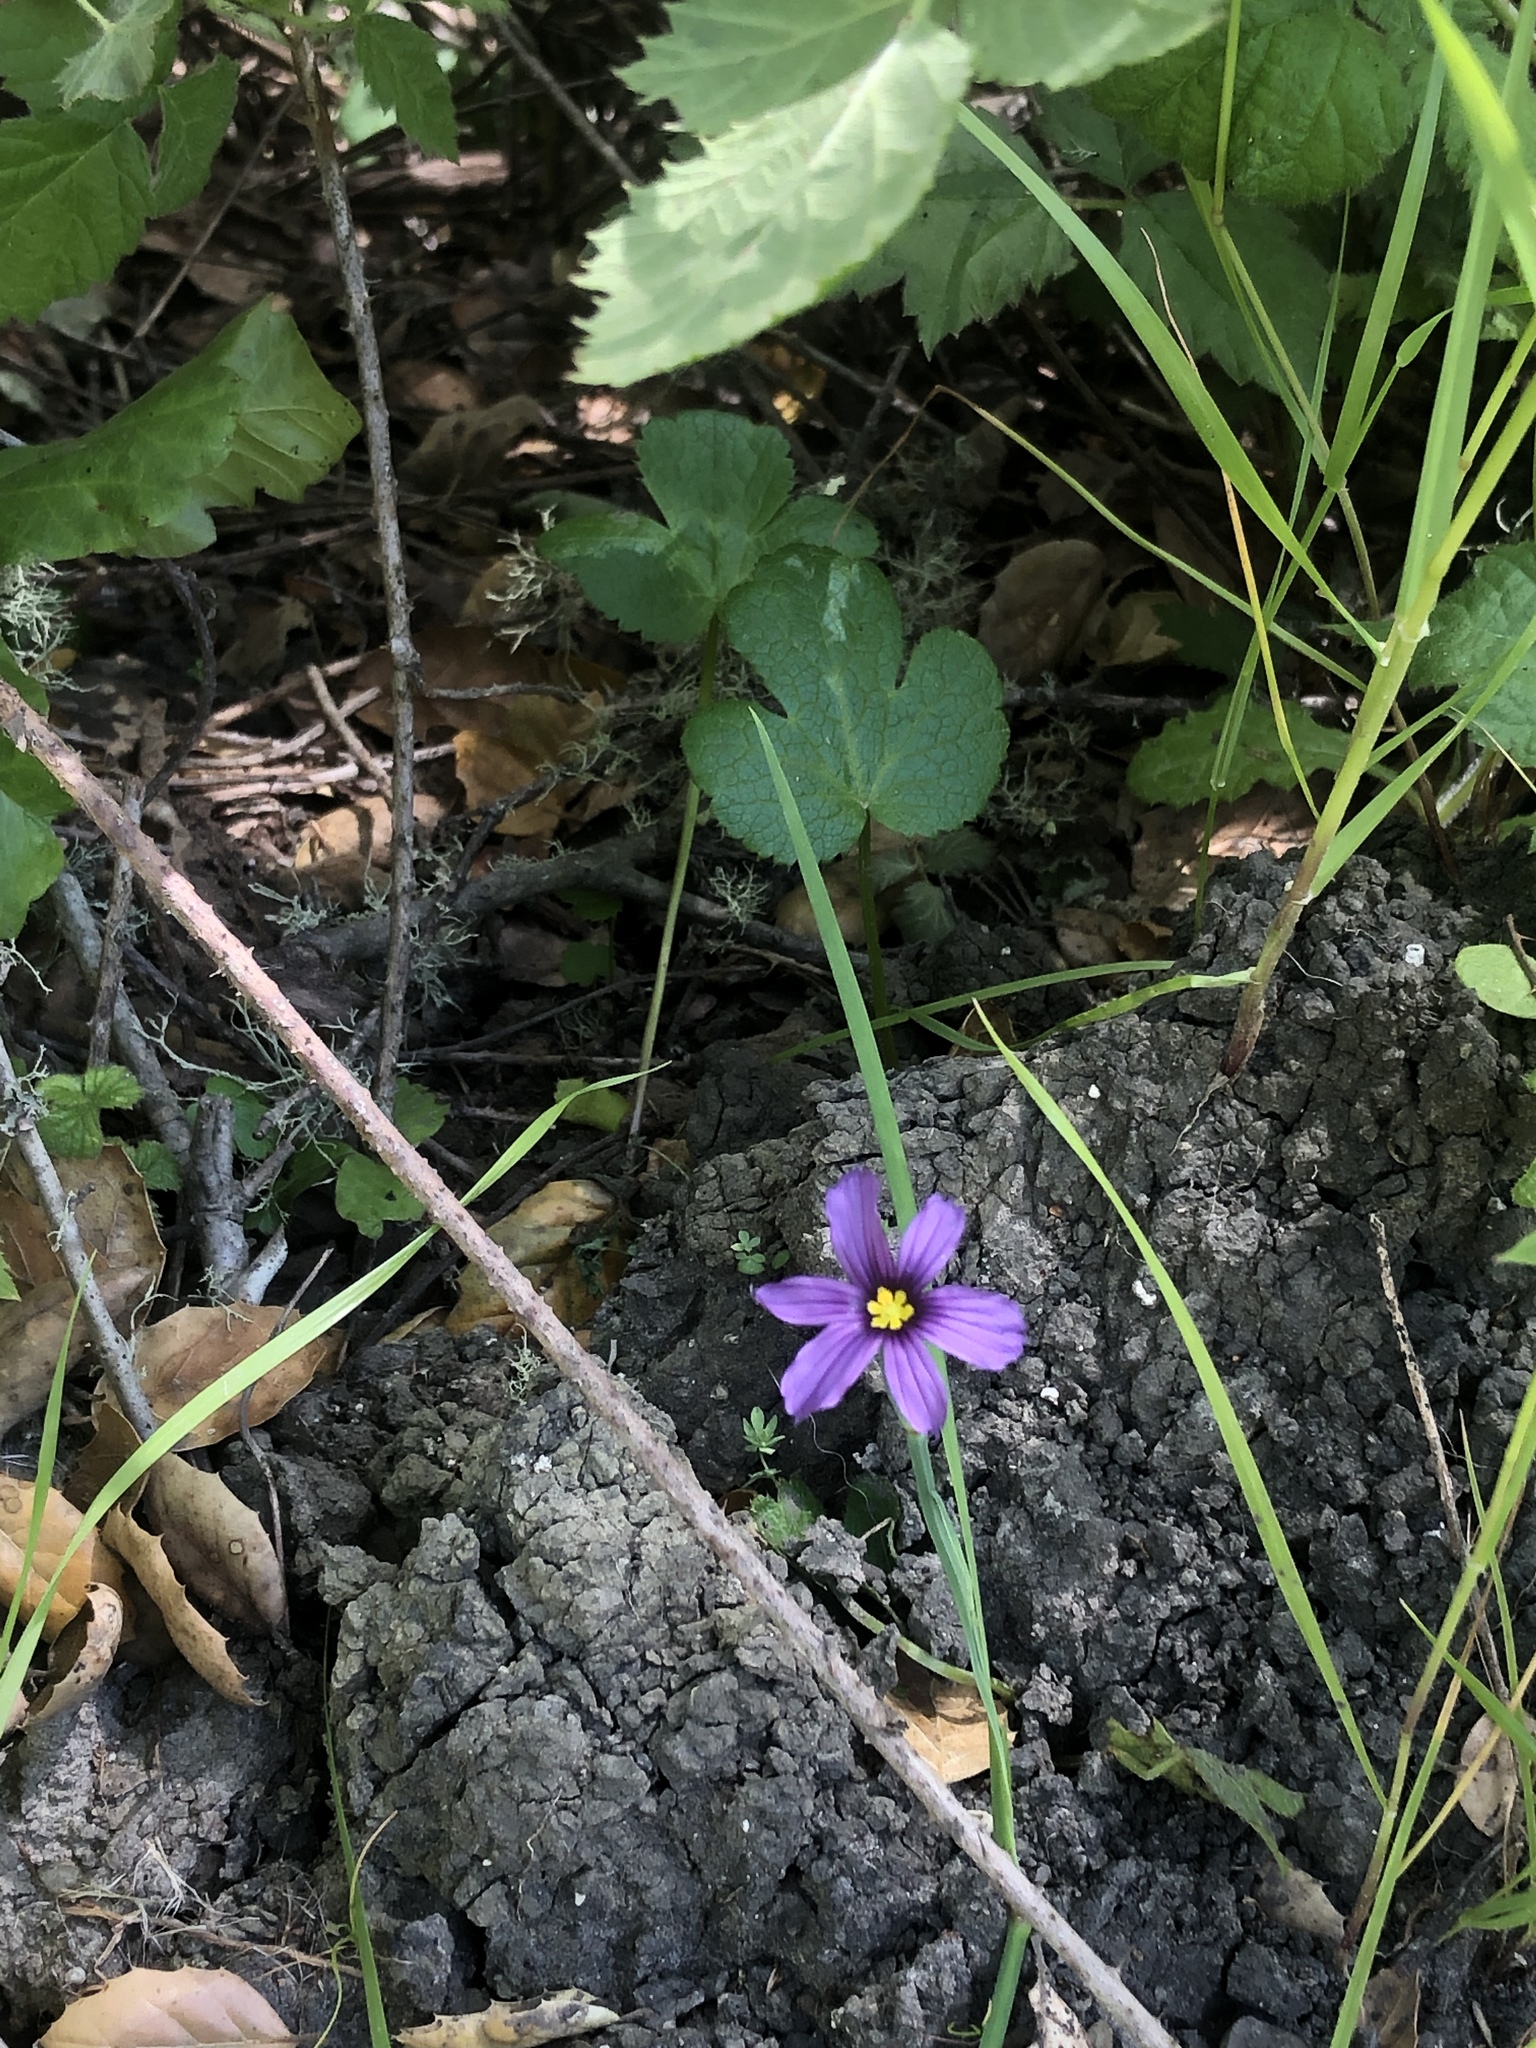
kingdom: Plantae
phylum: Tracheophyta
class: Liliopsida
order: Asparagales
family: Iridaceae
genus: Sisyrinchium
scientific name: Sisyrinchium bellum
